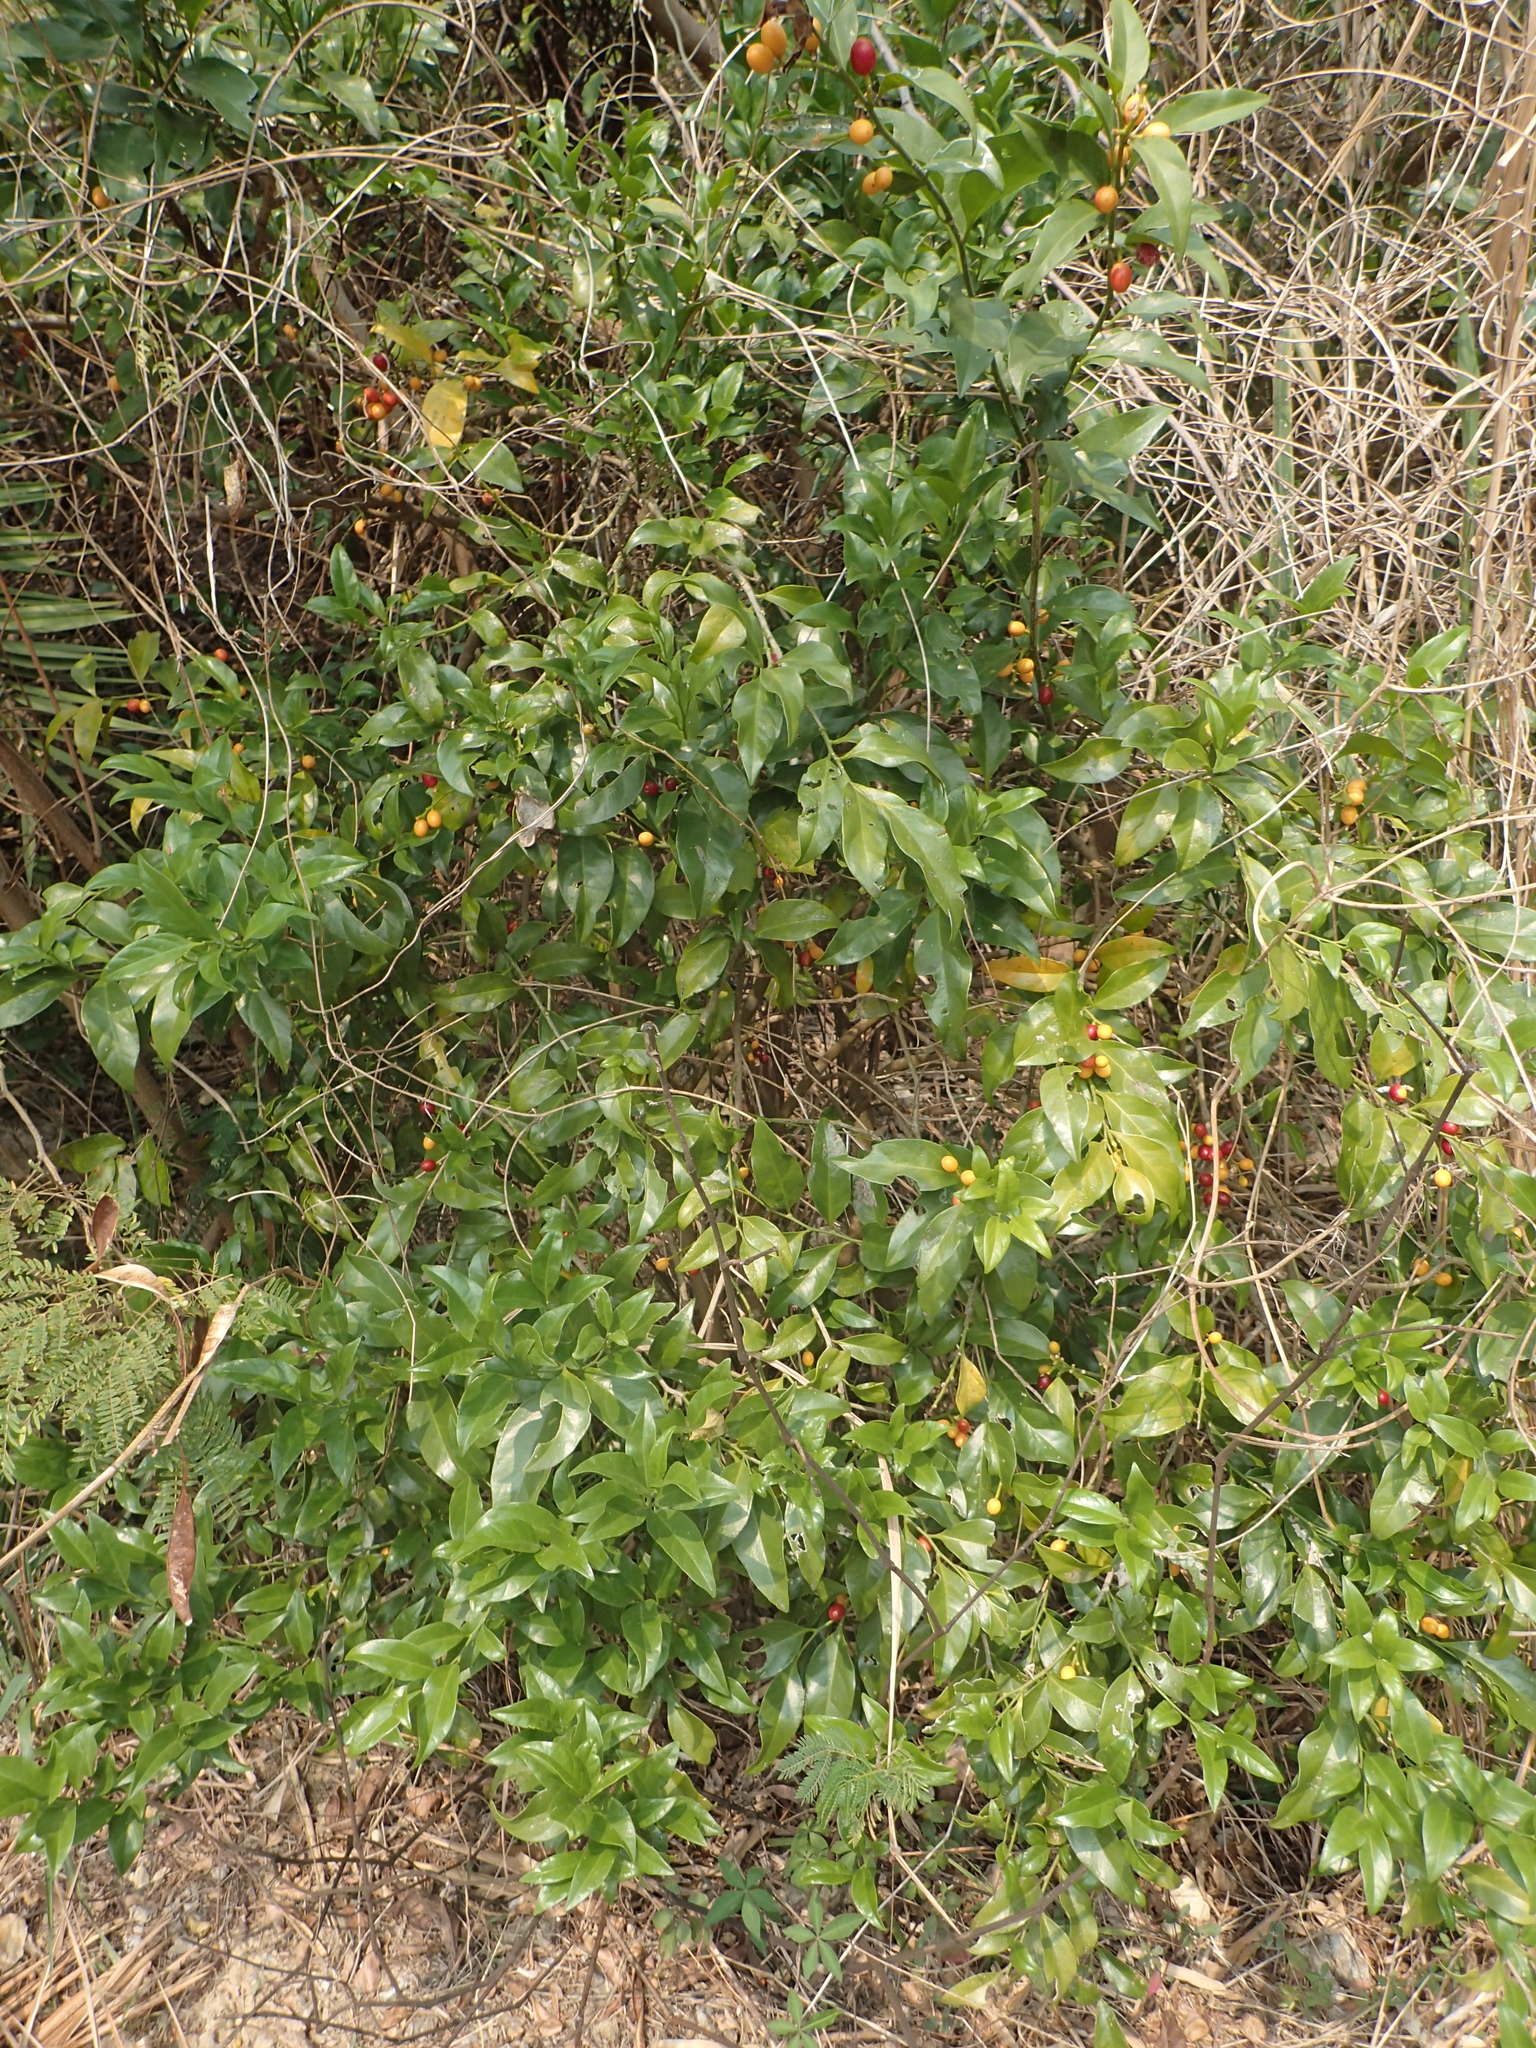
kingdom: Plantae
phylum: Tracheophyta
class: Magnoliopsida
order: Santalales
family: Opiliaceae
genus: Champereia
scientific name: Champereia manillana
